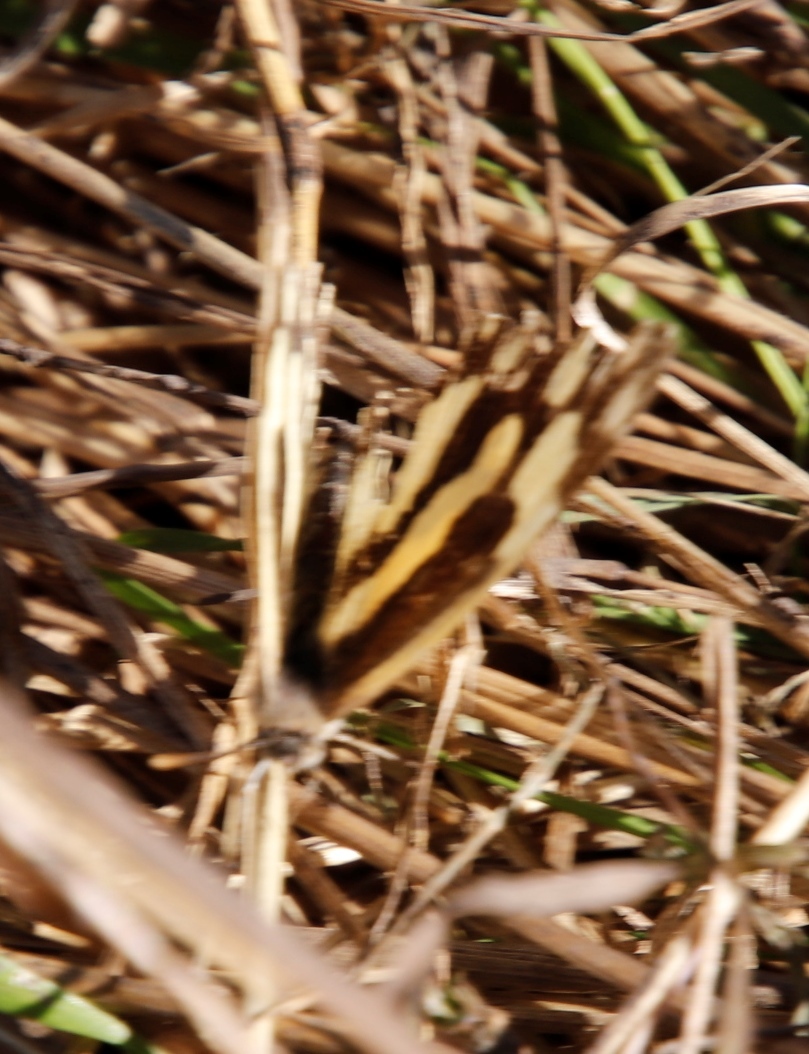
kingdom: Animalia
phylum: Arthropoda
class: Insecta
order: Lepidoptera
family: Pieridae
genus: Pinacopteryx
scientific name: Pinacopteryx eriphia
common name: Zebra white
